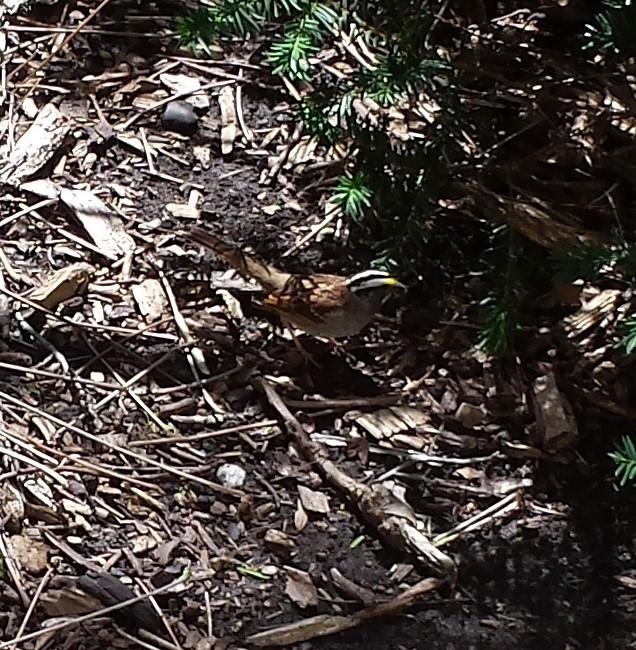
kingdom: Animalia
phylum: Chordata
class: Aves
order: Passeriformes
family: Passerellidae
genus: Zonotrichia
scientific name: Zonotrichia albicollis
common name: White-throated sparrow
